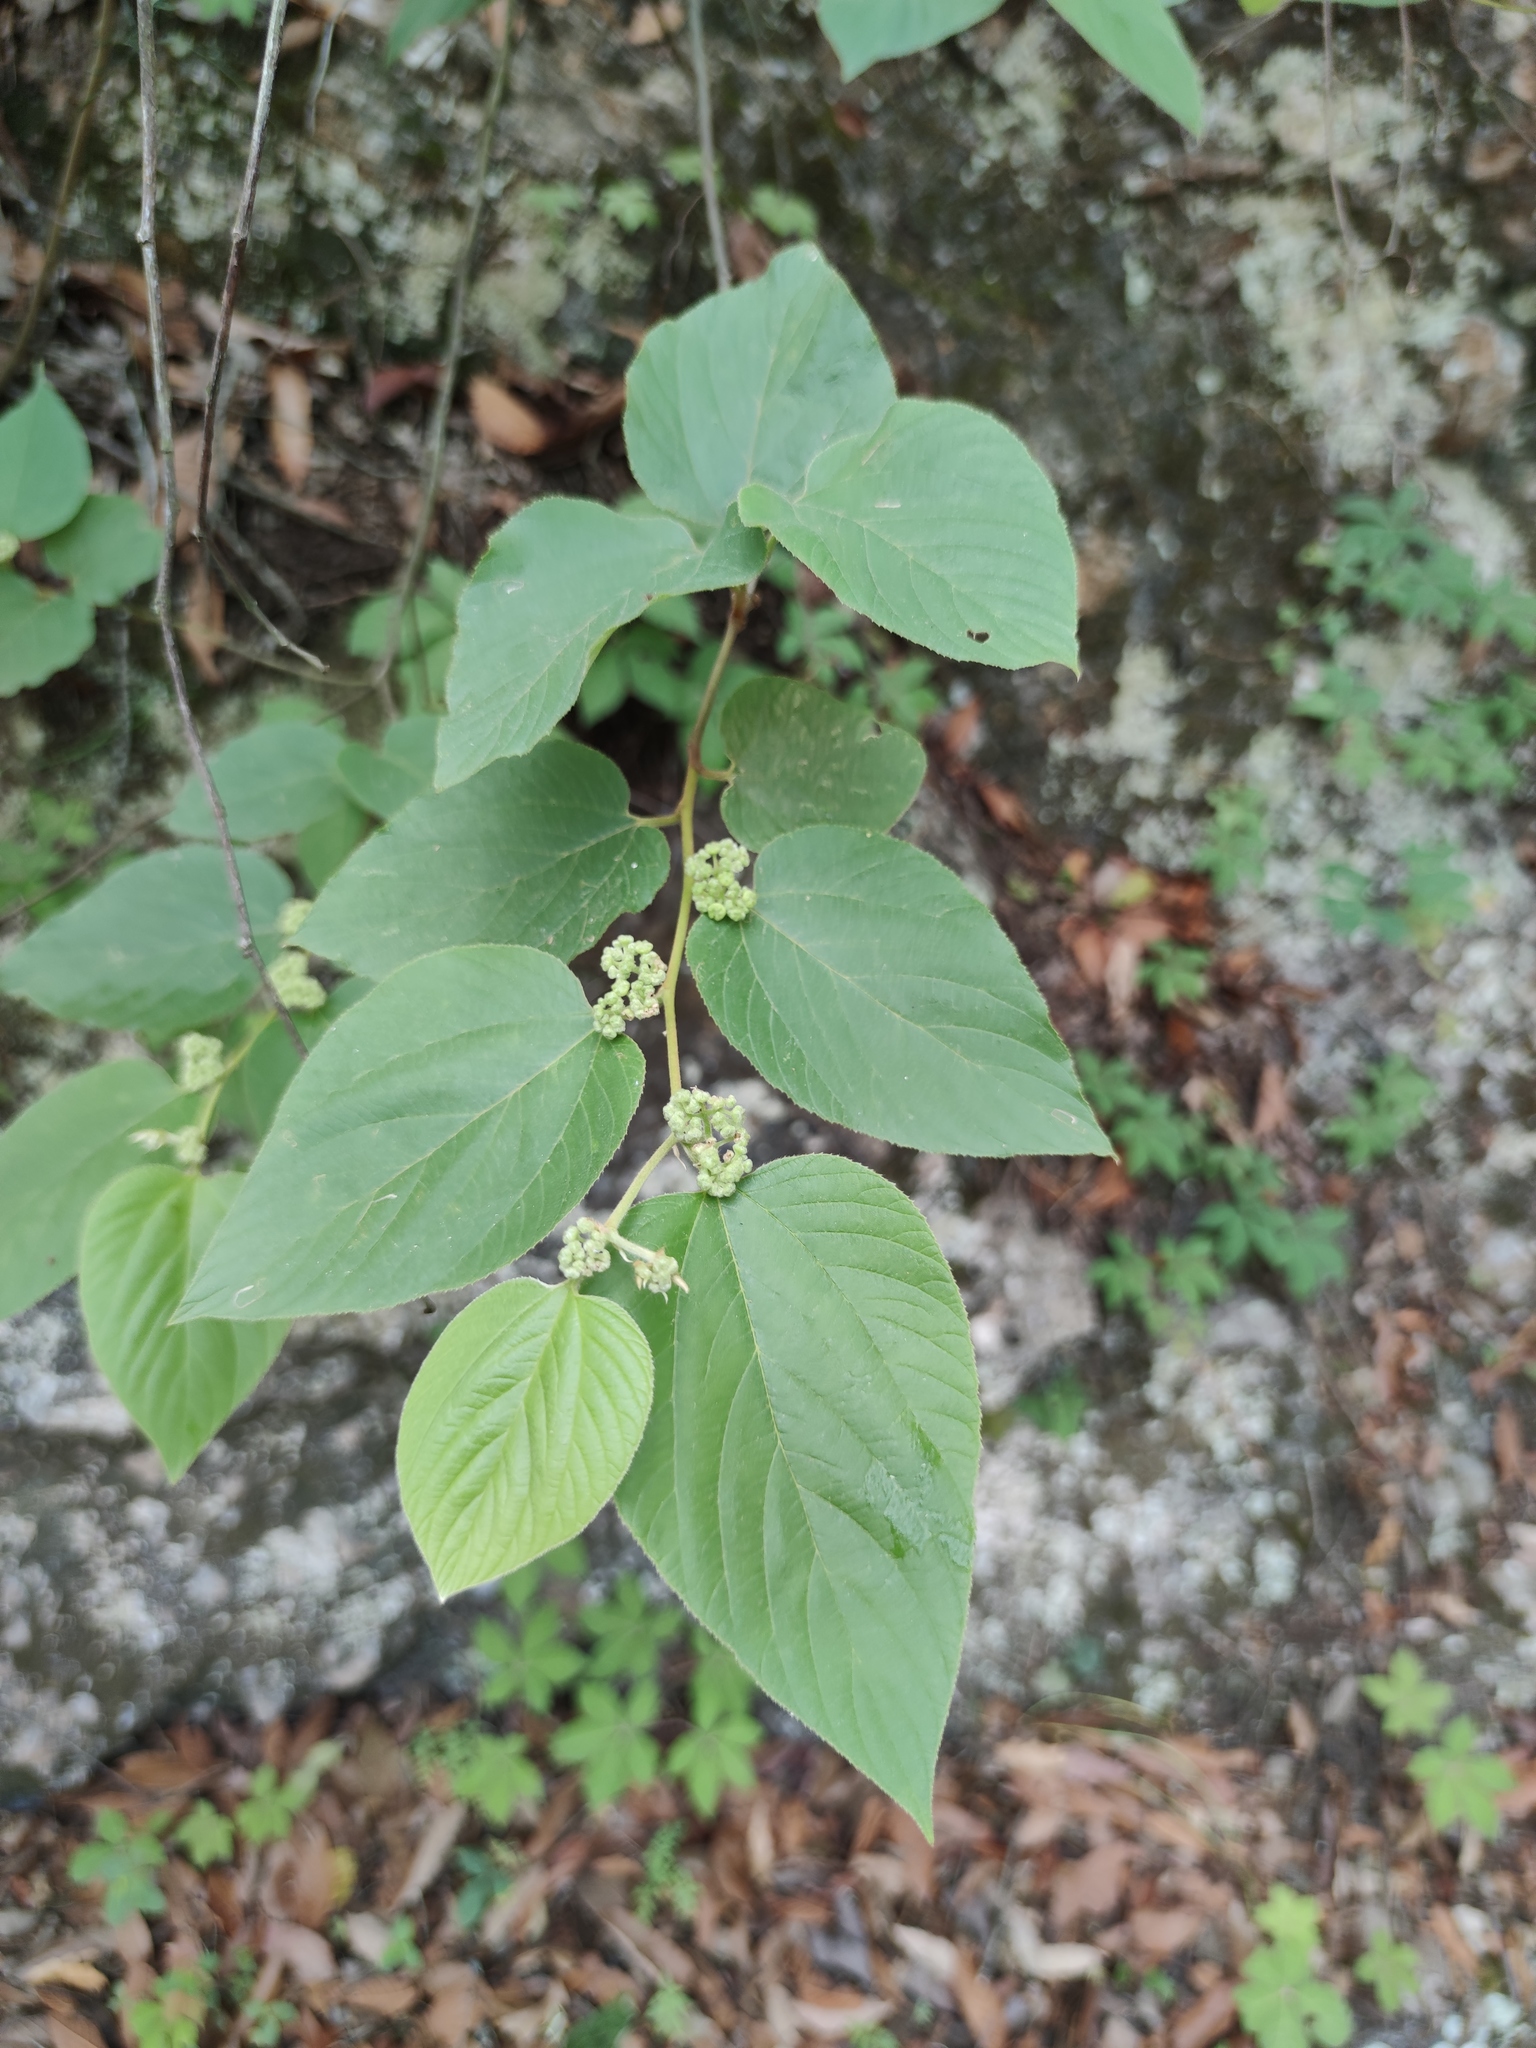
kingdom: Plantae
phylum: Tracheophyta
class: Magnoliopsida
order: Rosales
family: Rhamnaceae
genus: Colubrina
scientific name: Colubrina greggii
